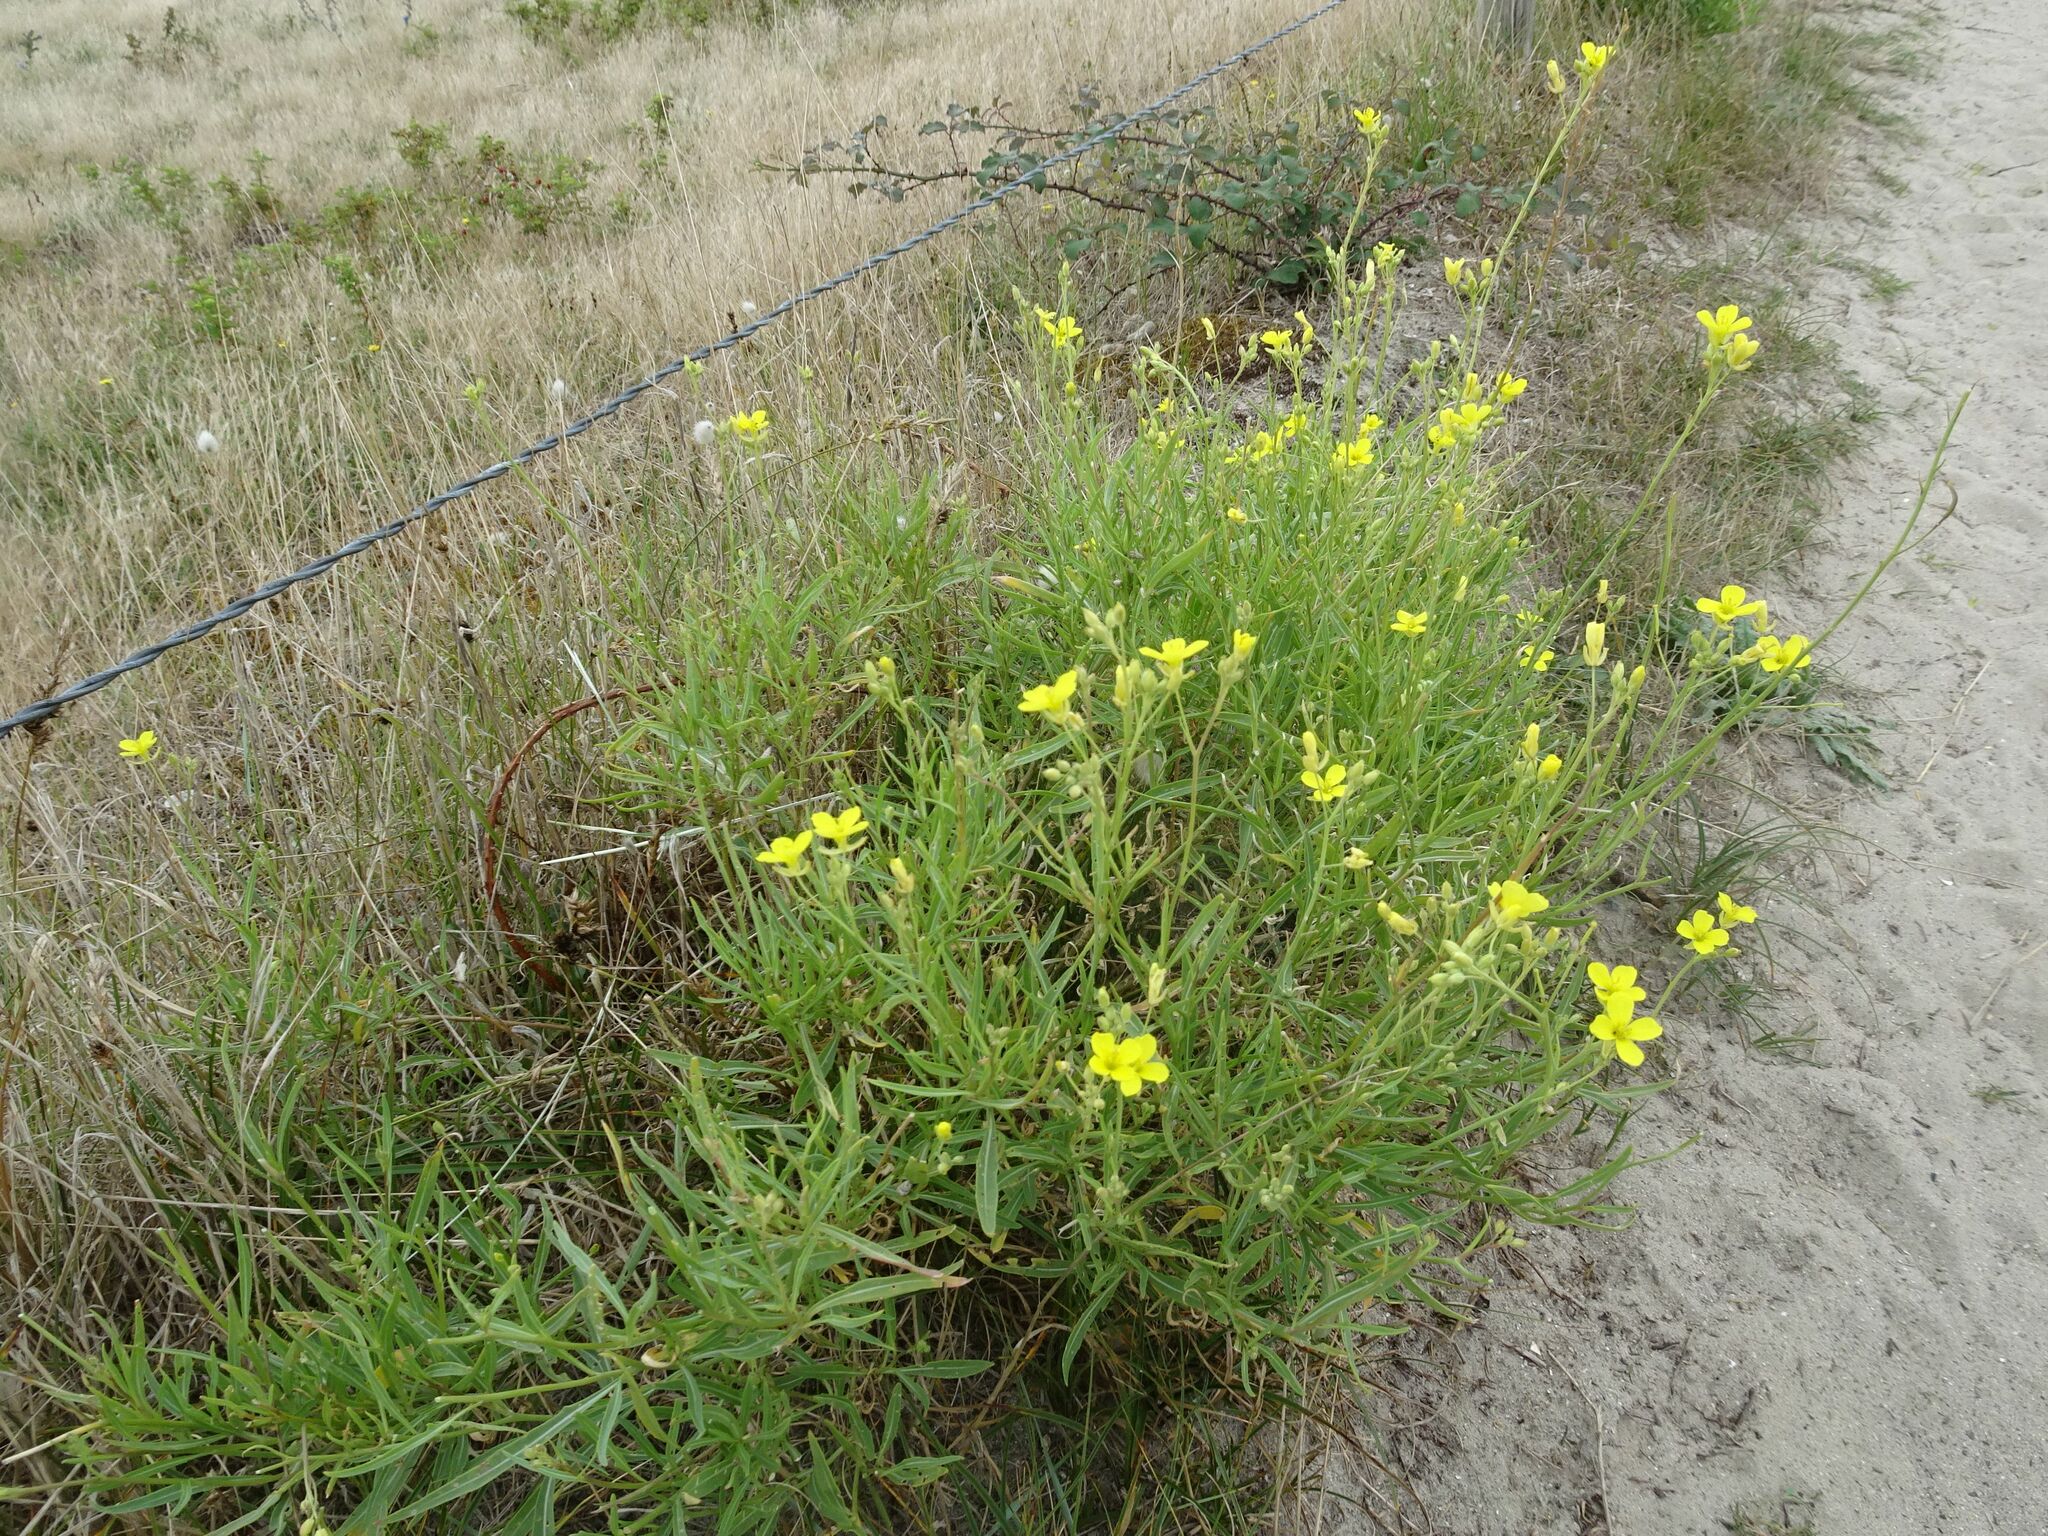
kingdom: Plantae
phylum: Tracheophyta
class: Magnoliopsida
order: Brassicales
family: Brassicaceae
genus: Diplotaxis
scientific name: Diplotaxis tenuifolia
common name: Perennial wall-rocket
